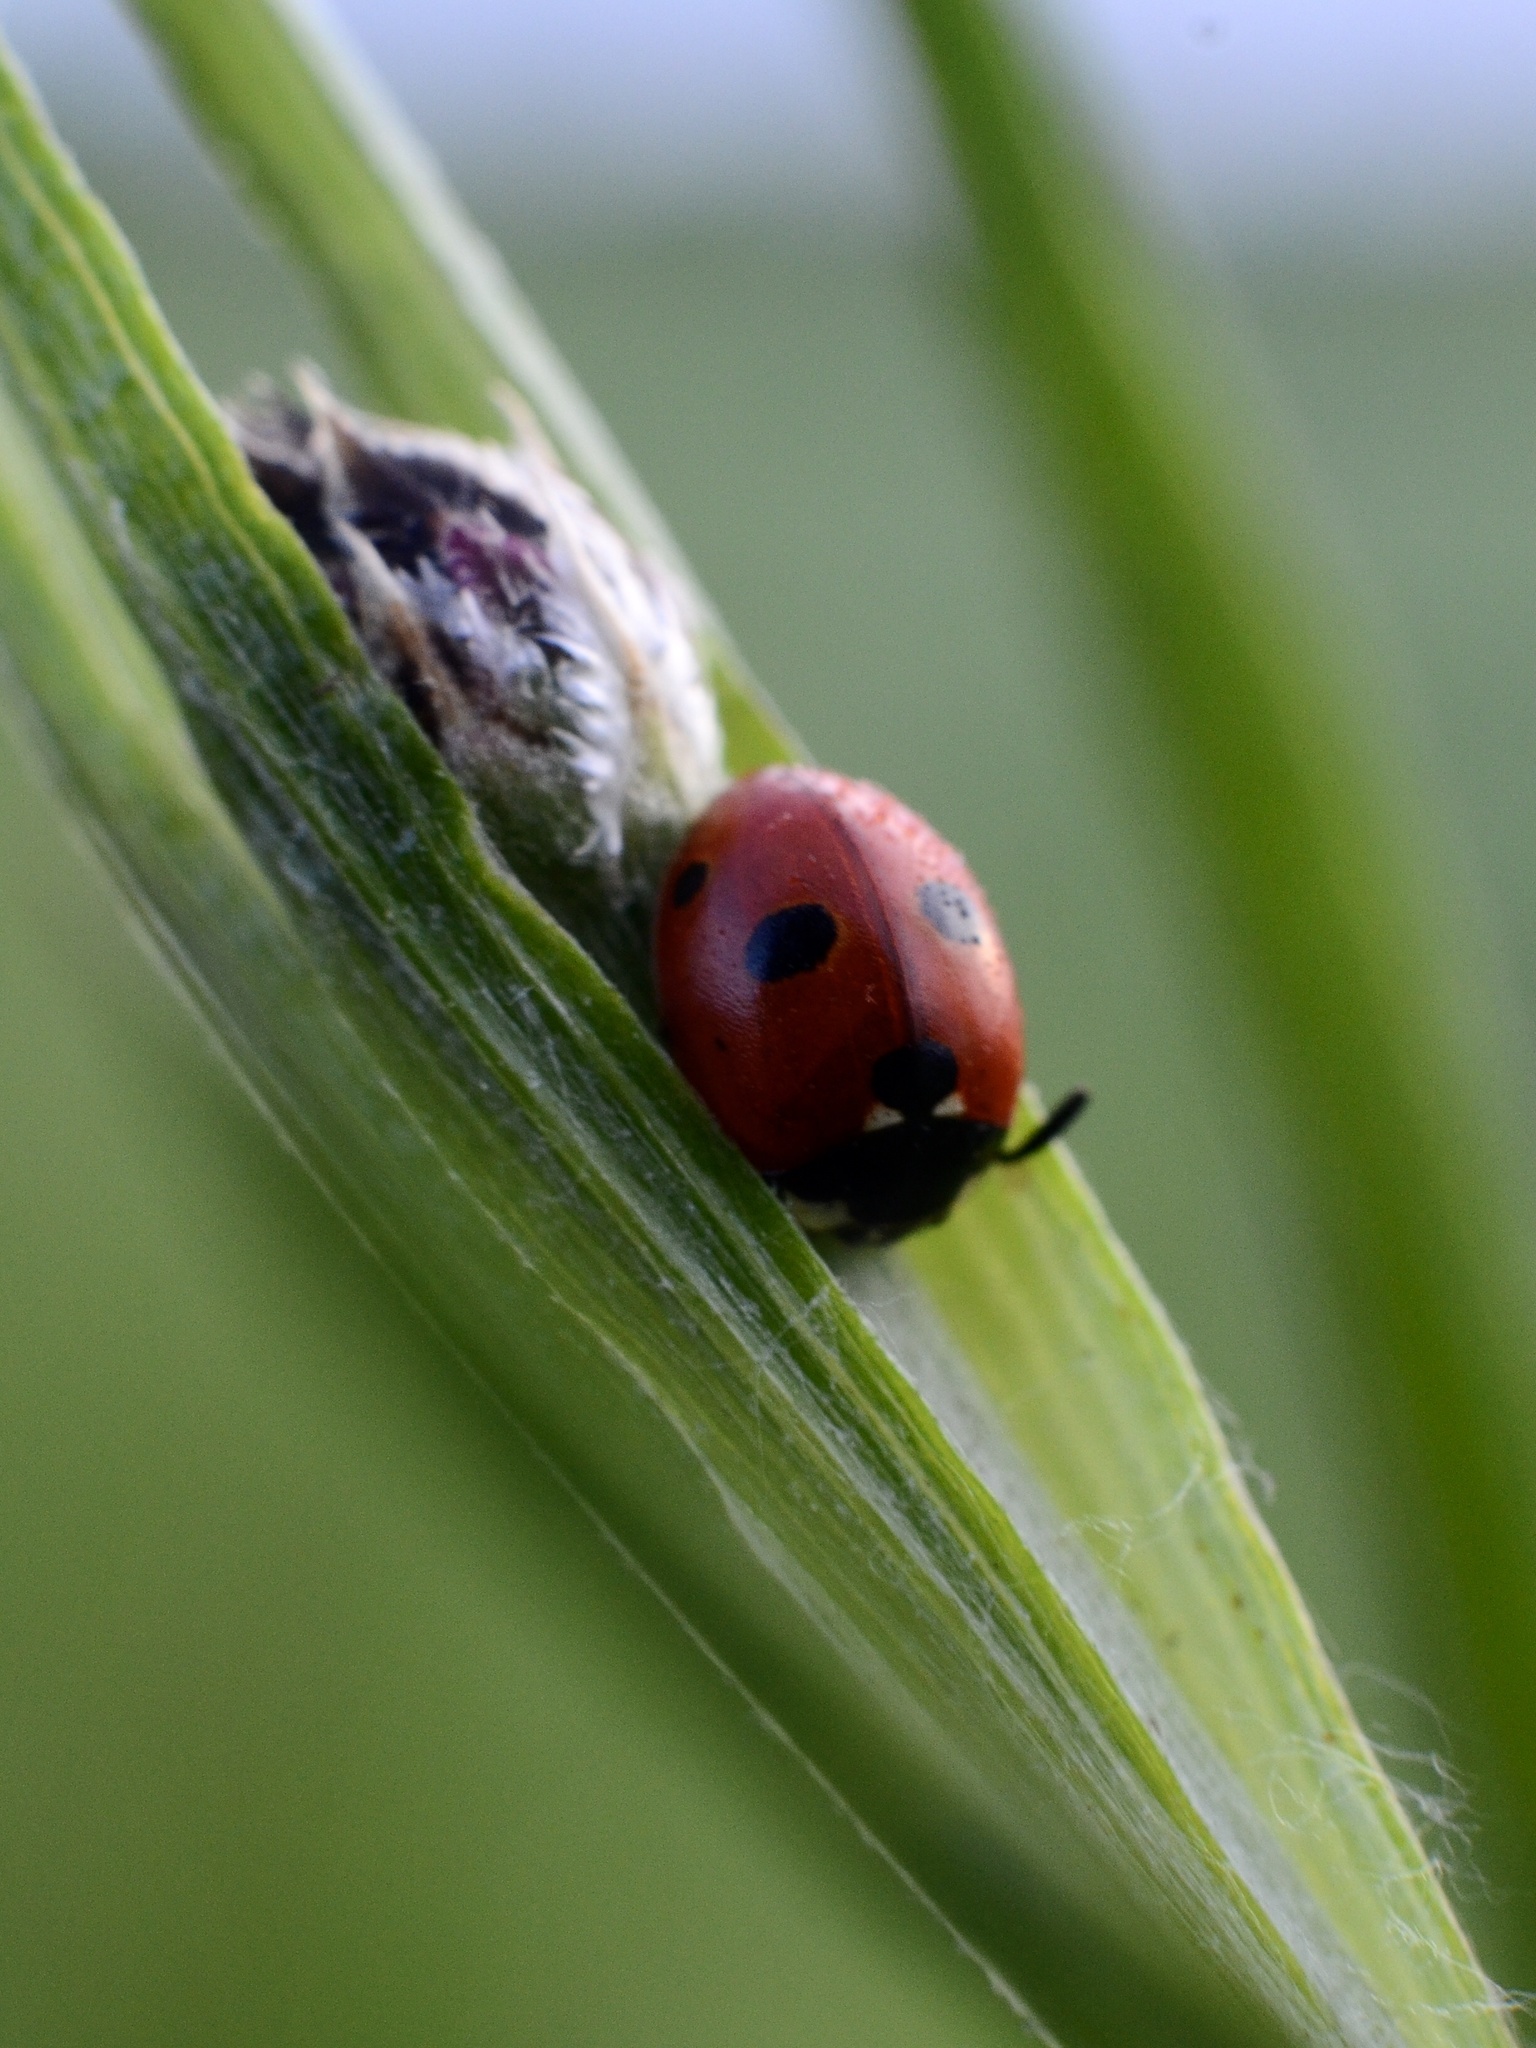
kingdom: Animalia
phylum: Arthropoda
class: Insecta
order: Coleoptera
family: Coccinellidae
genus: Coccinella
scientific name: Coccinella quinquepunctata
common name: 5-spot ladybird
